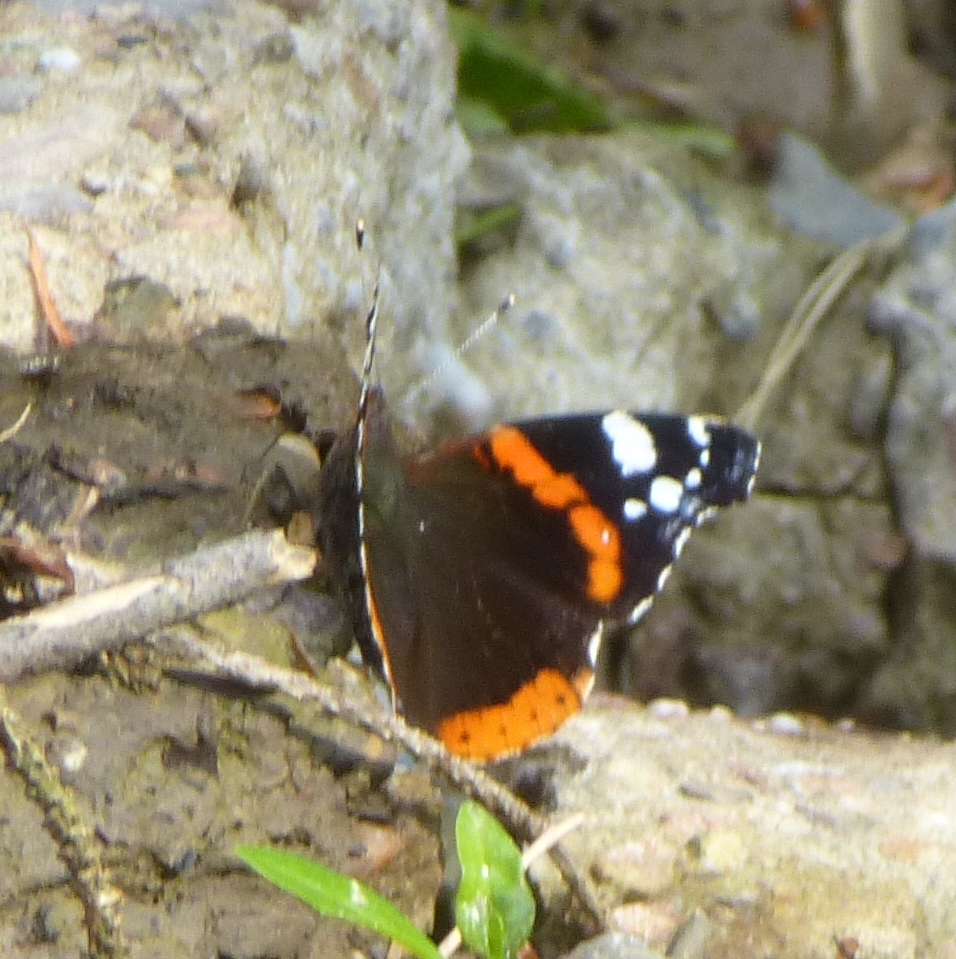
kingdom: Animalia
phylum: Arthropoda
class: Insecta
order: Lepidoptera
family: Nymphalidae
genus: Vanessa
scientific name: Vanessa atalanta
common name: Red admiral
